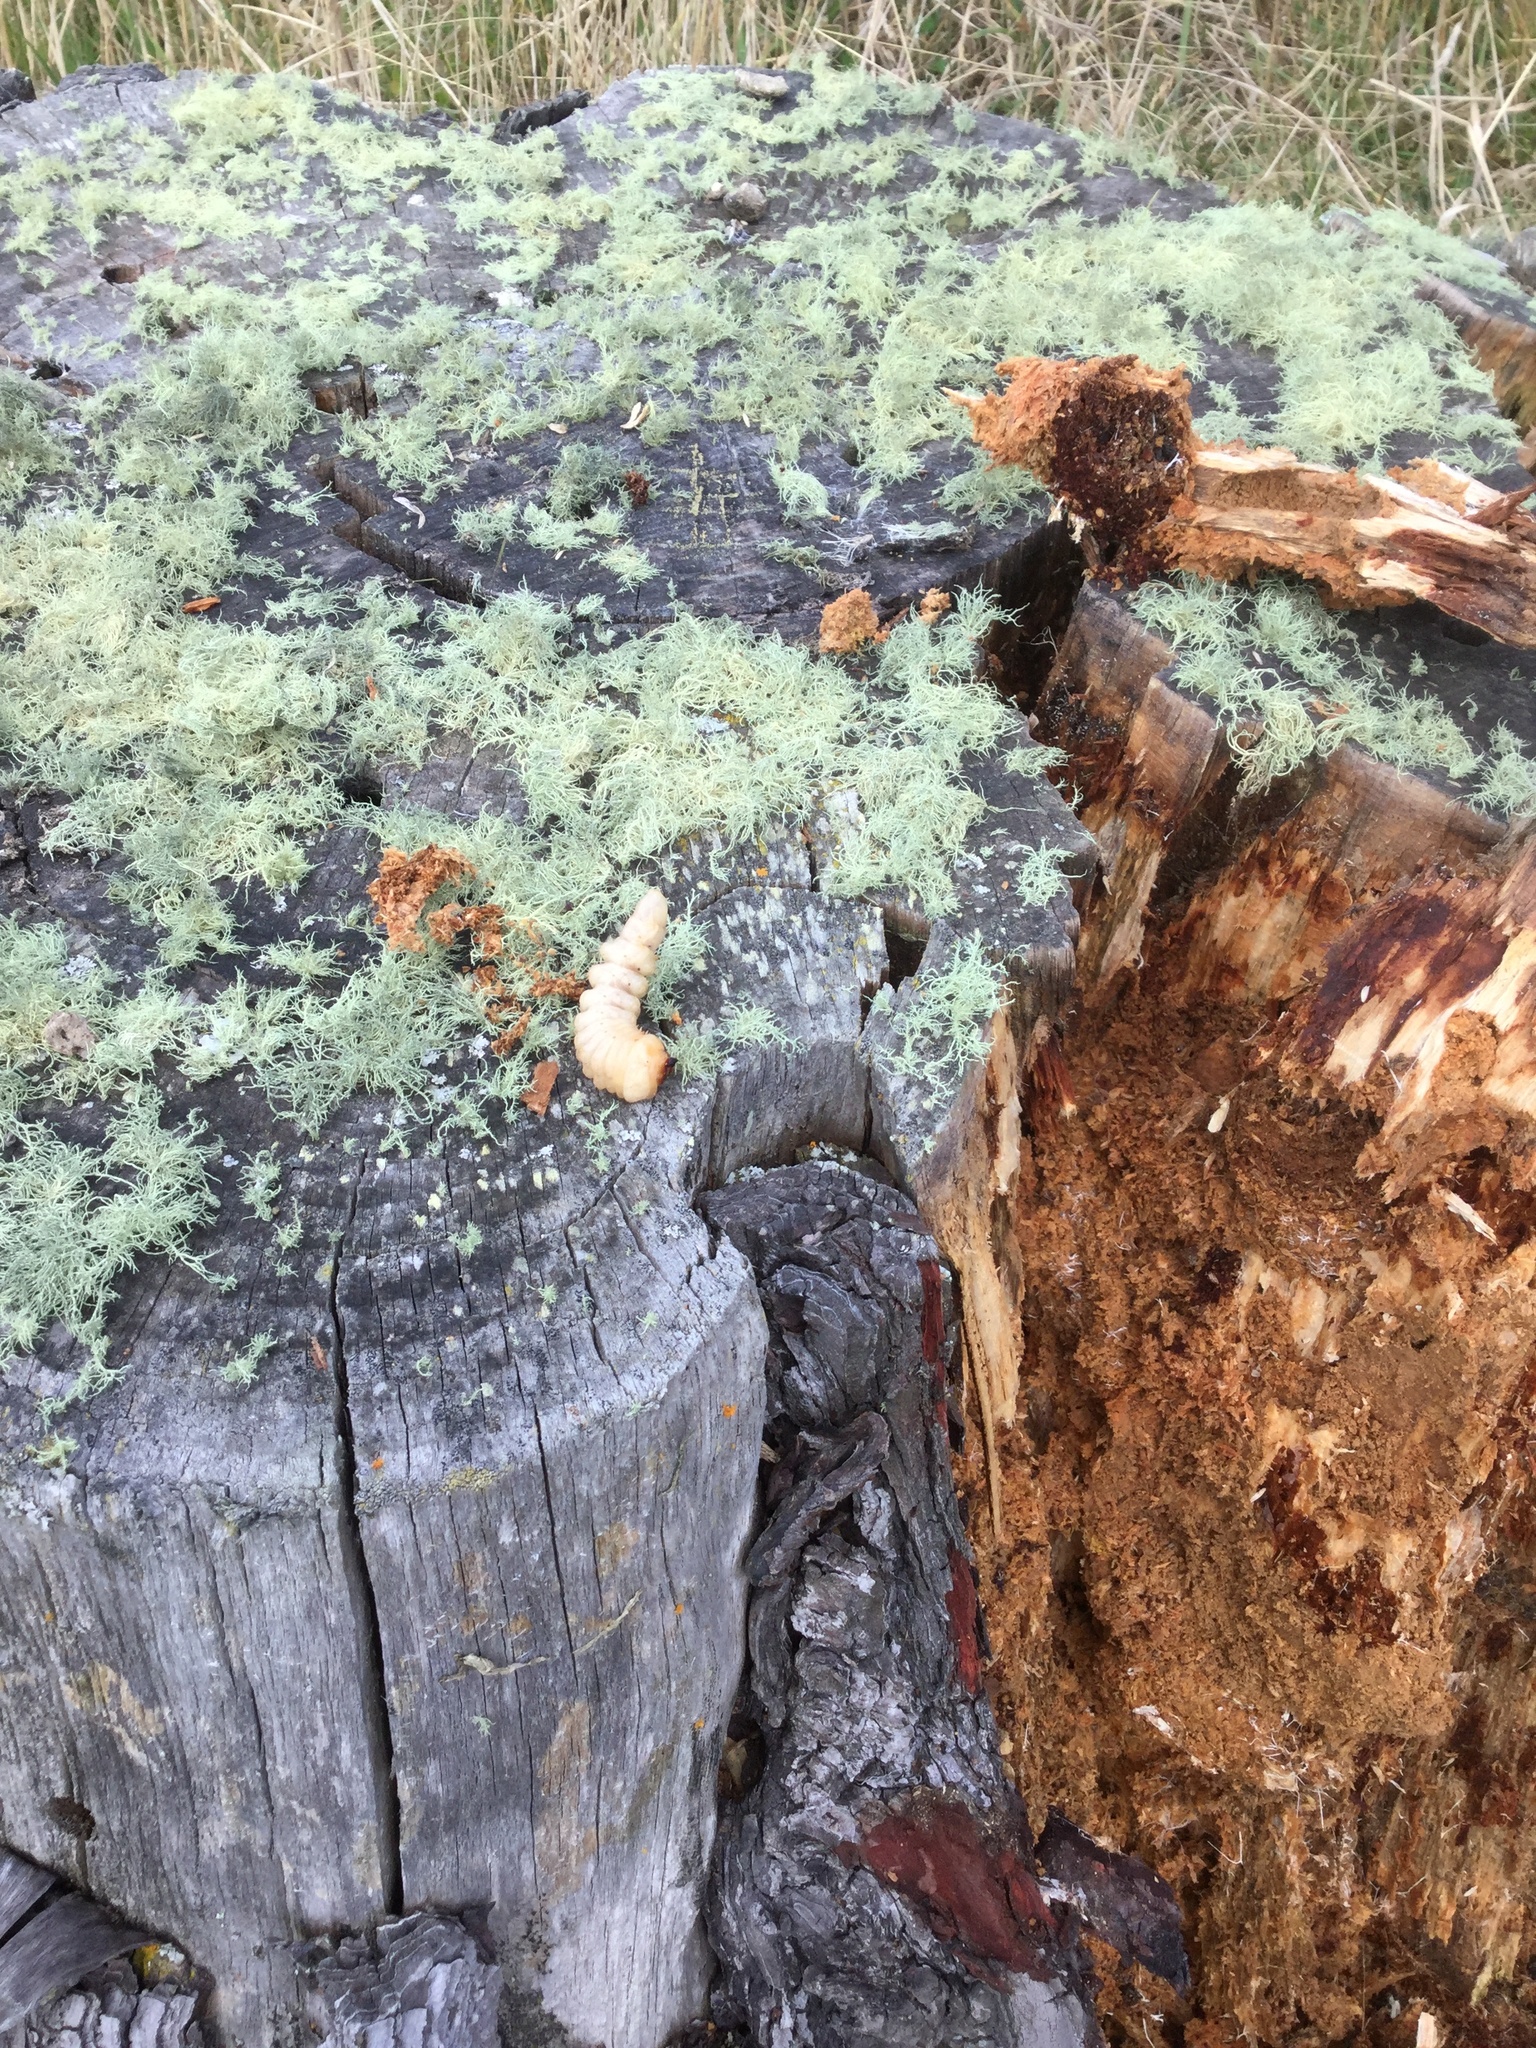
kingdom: Animalia
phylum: Arthropoda
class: Insecta
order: Coleoptera
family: Cerambycidae
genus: Prionoplus
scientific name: Prionoplus reticularis
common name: Huhu beetle
